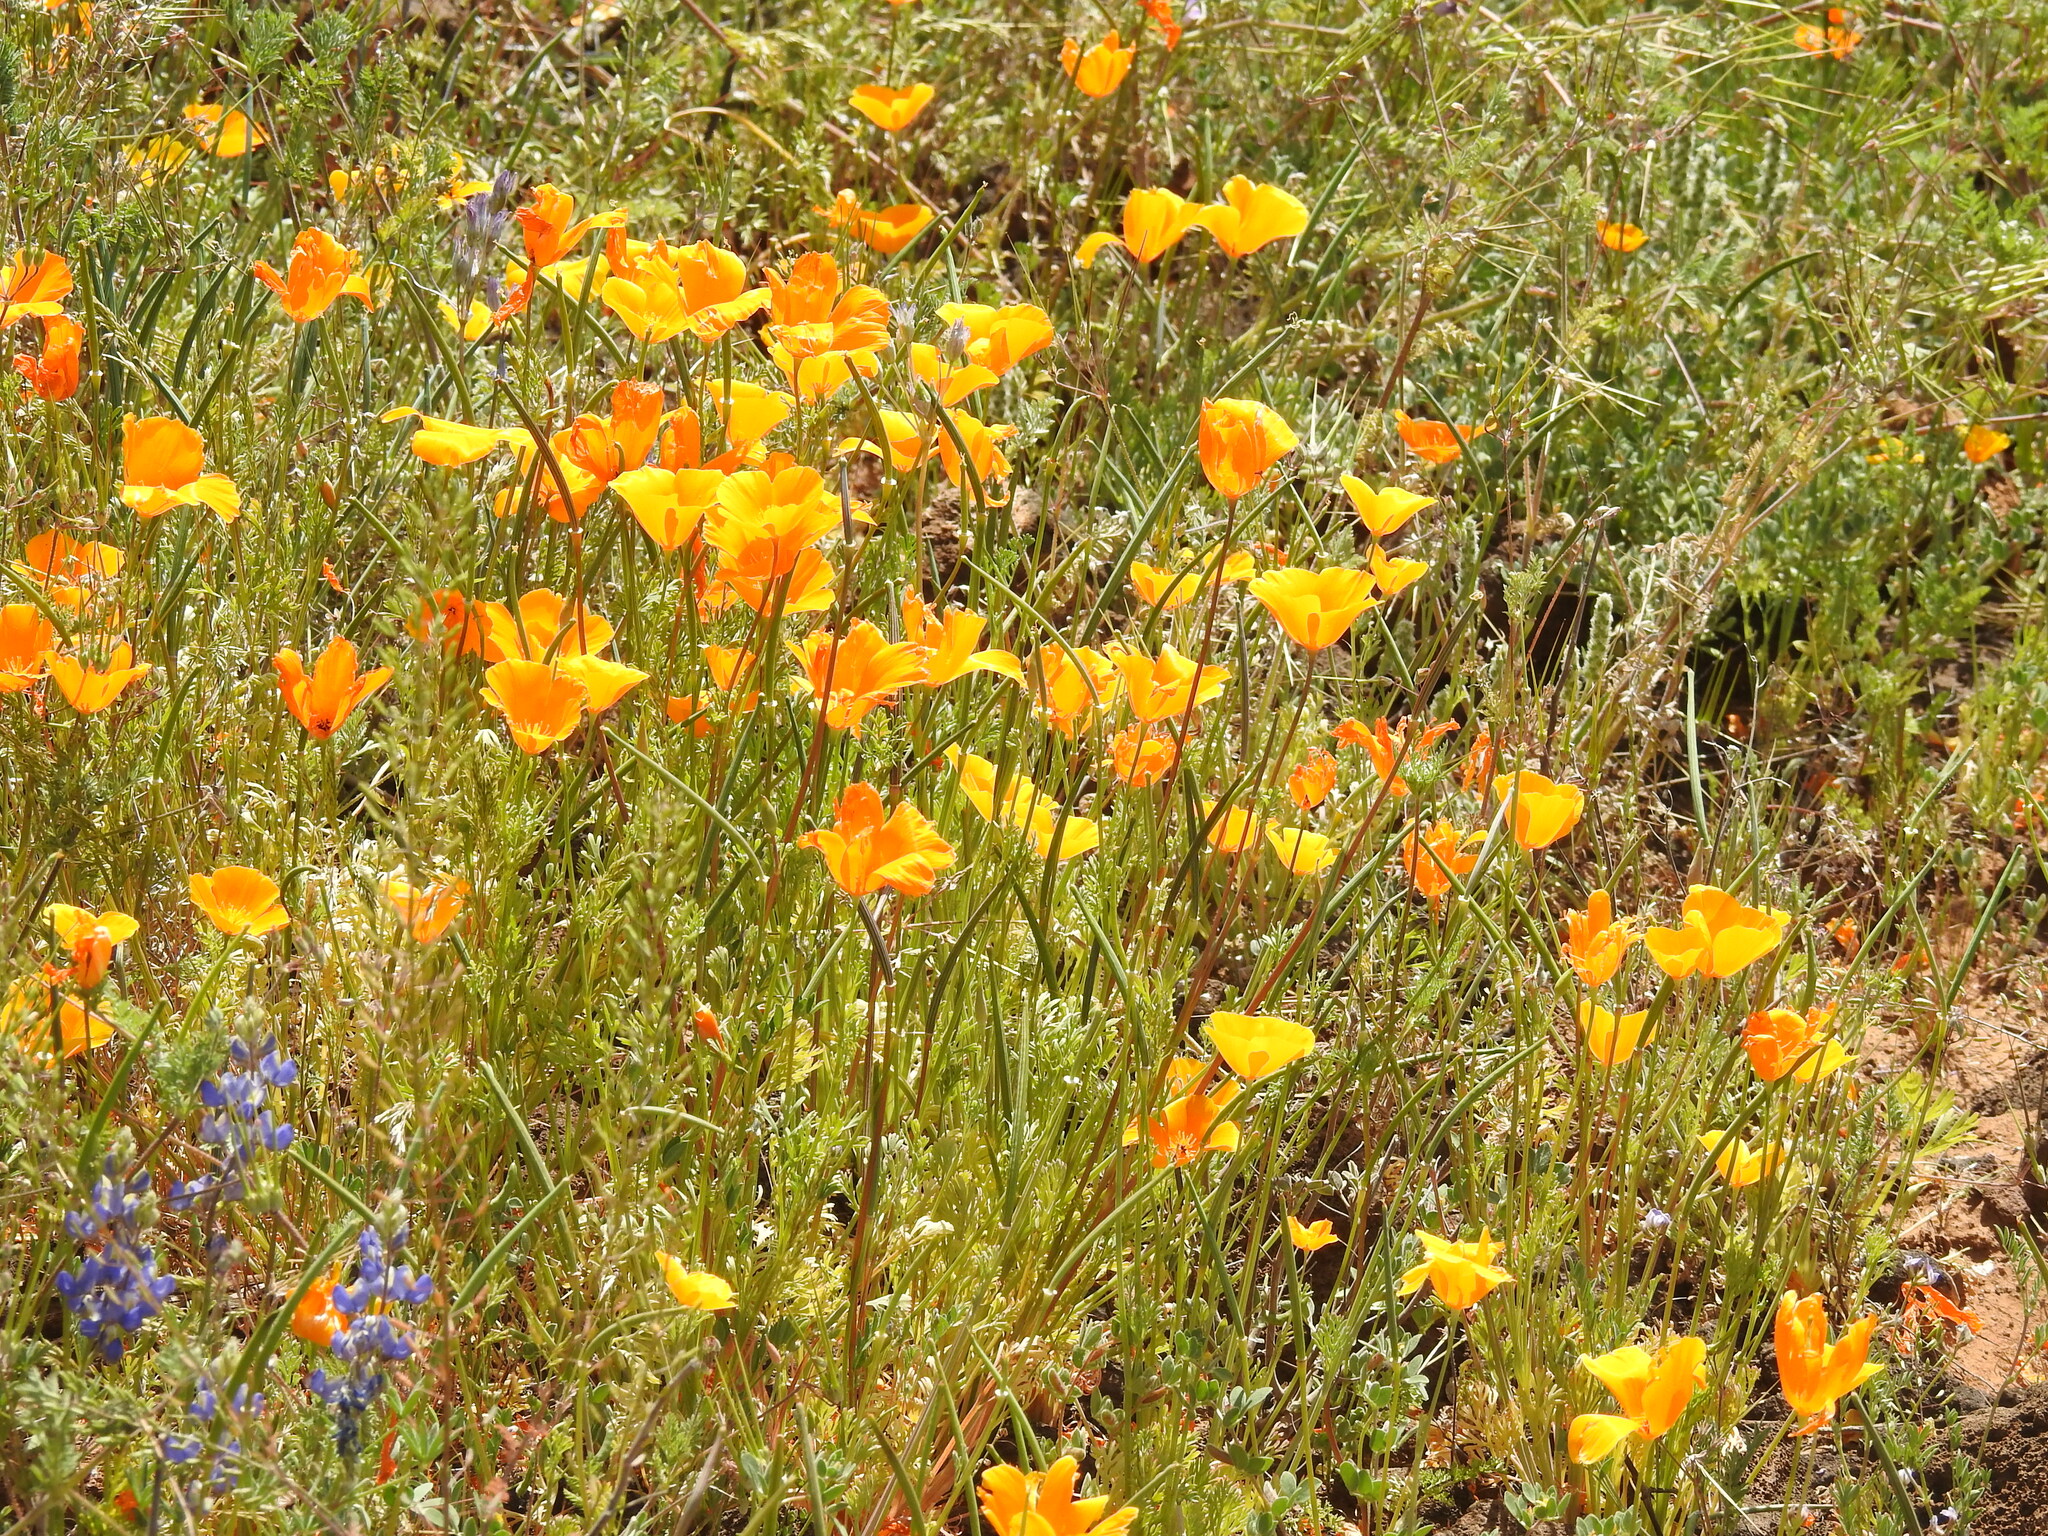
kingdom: Plantae
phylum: Tracheophyta
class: Magnoliopsida
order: Ranunculales
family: Papaveraceae
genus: Eschscholzia
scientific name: Eschscholzia californica
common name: California poppy
